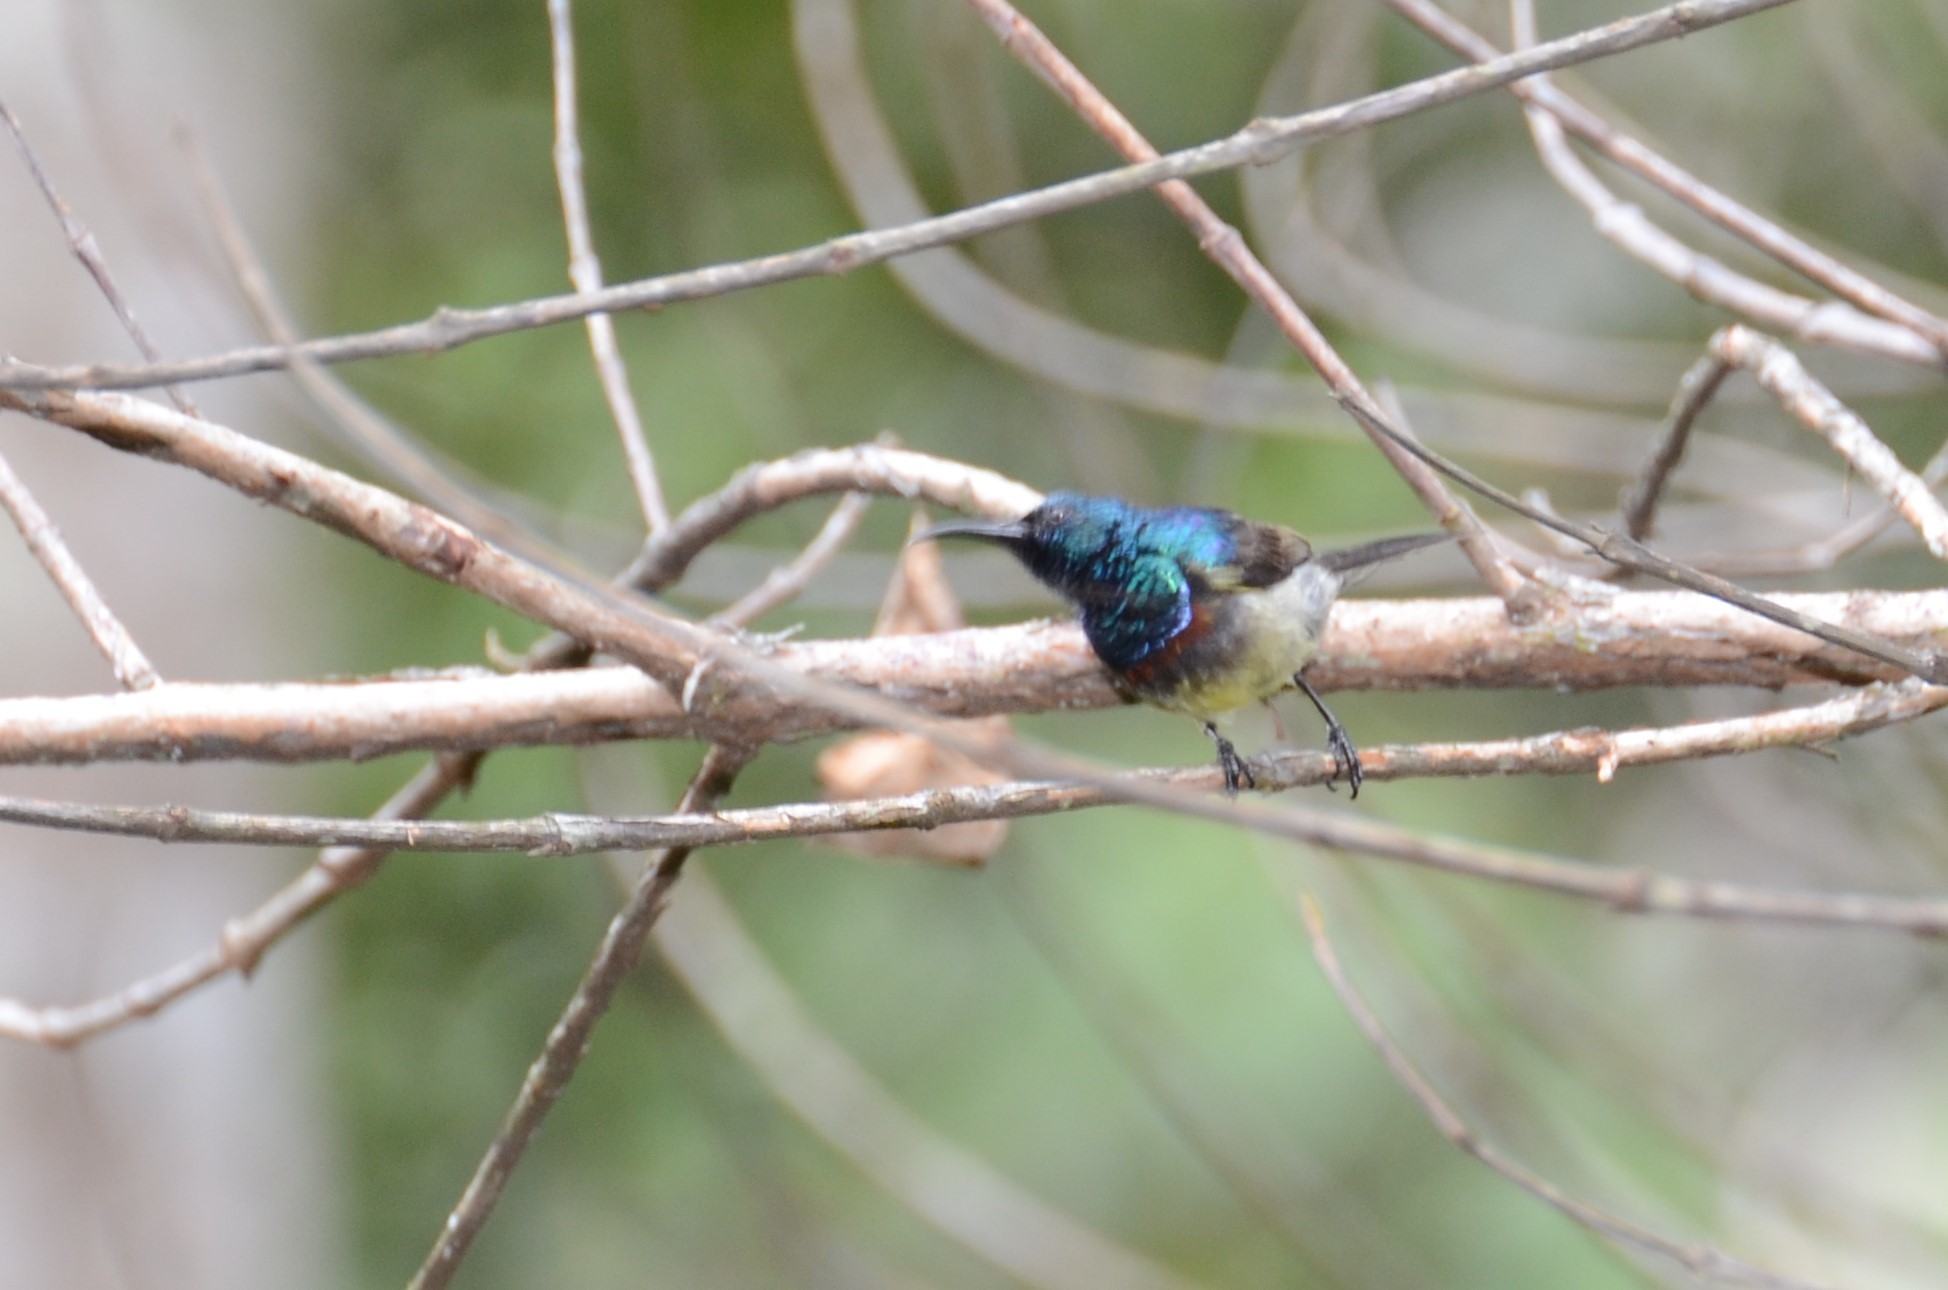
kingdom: Animalia
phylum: Chordata
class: Aves
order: Passeriformes
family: Nectariniidae
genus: Cinnyris
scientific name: Cinnyris sovimanga
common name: Souimanga sunbird
